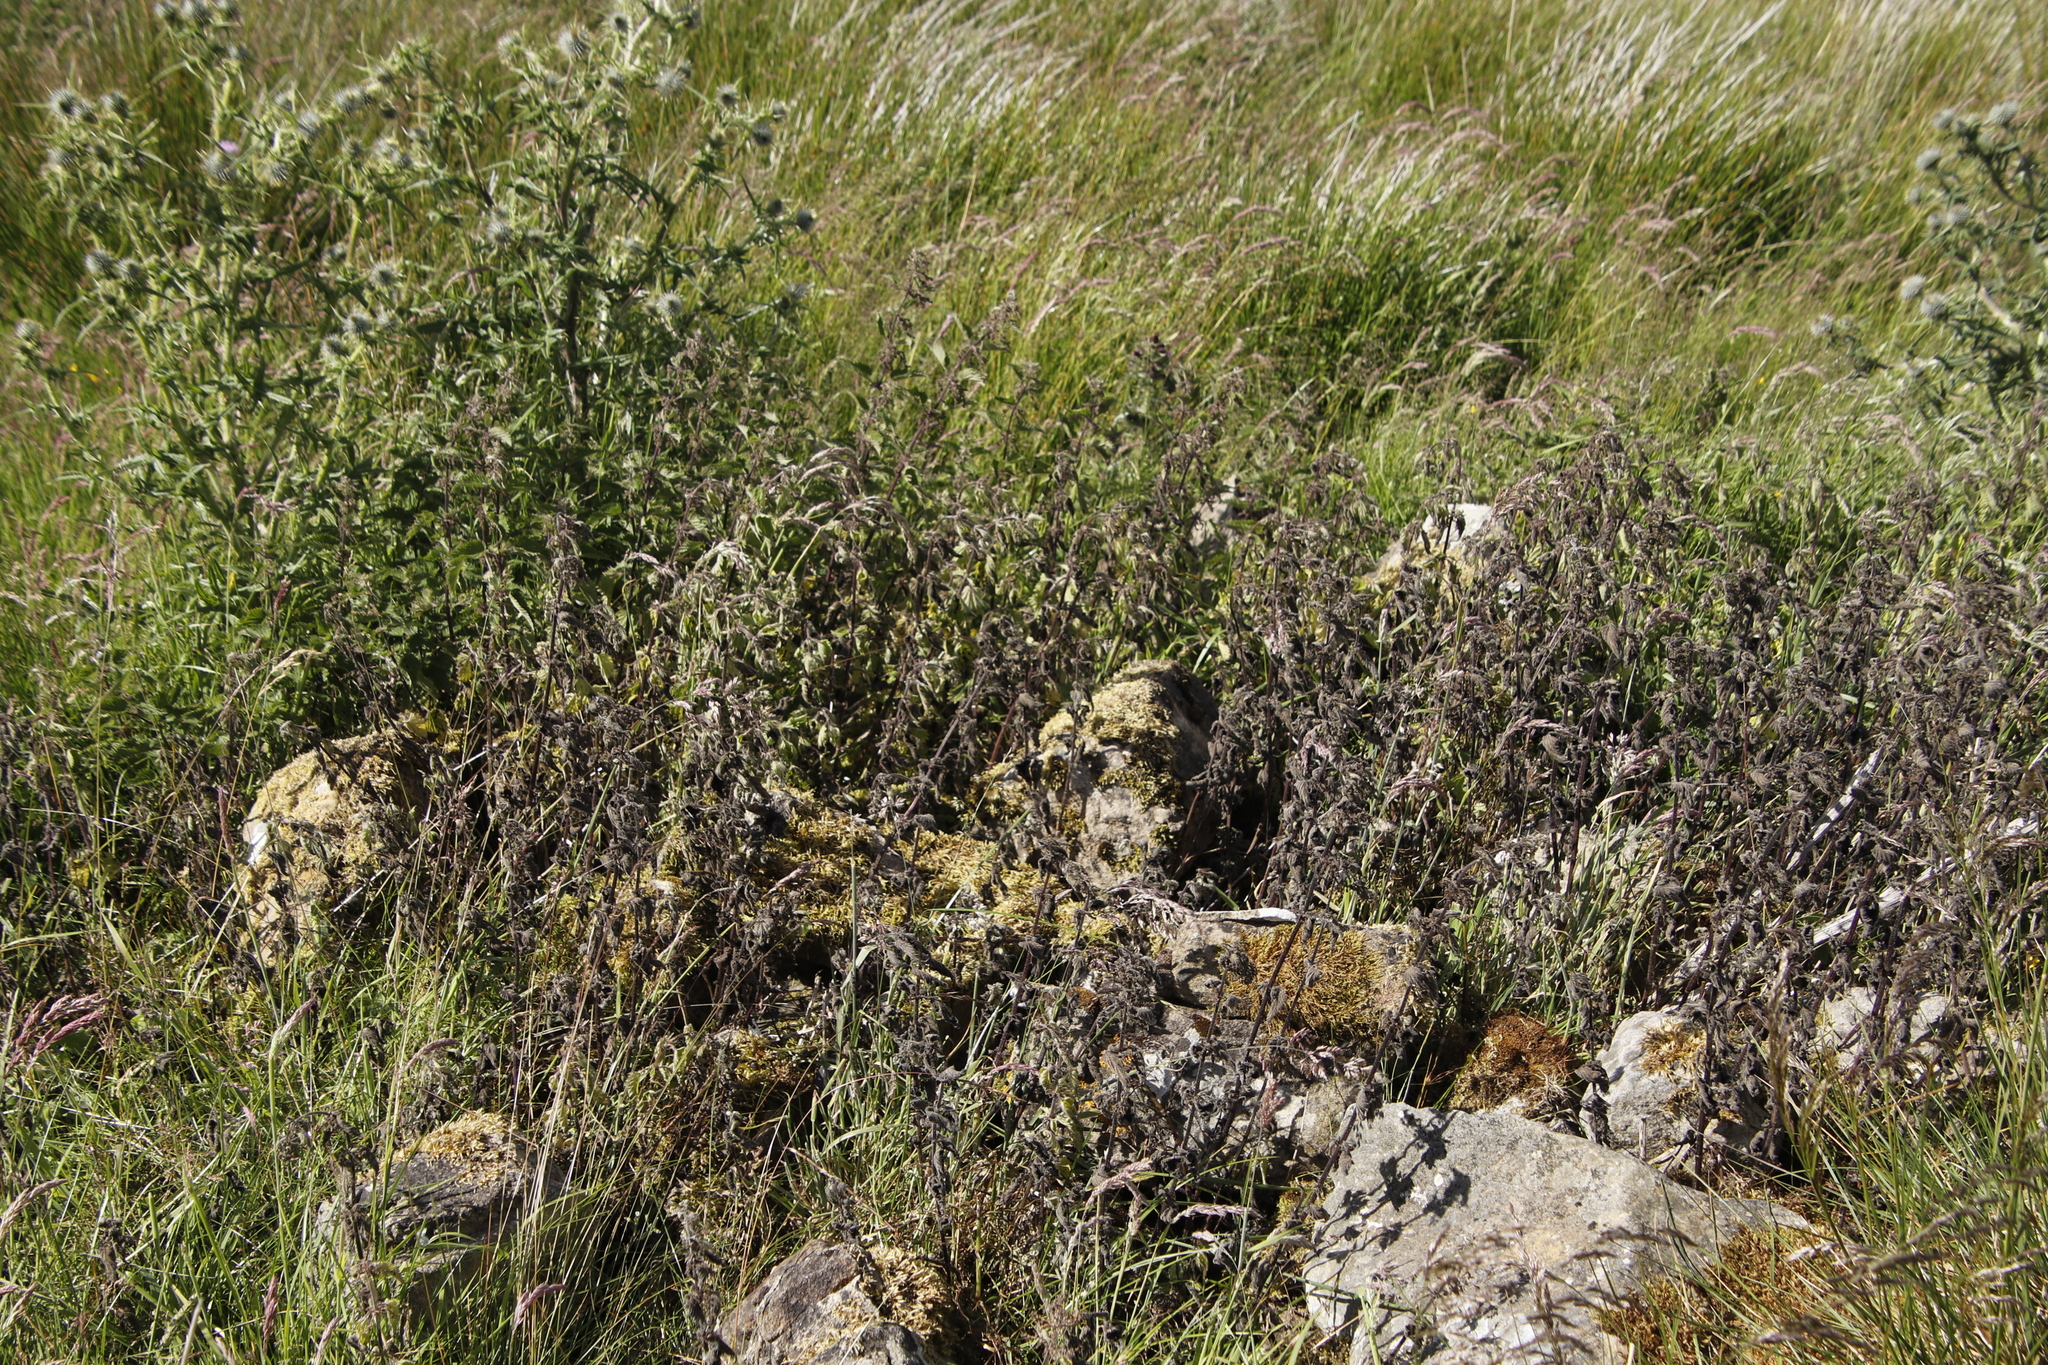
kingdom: Plantae
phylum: Tracheophyta
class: Magnoliopsida
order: Asterales
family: Asteraceae
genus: Cirsium
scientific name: Cirsium vulgare
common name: Bull thistle
